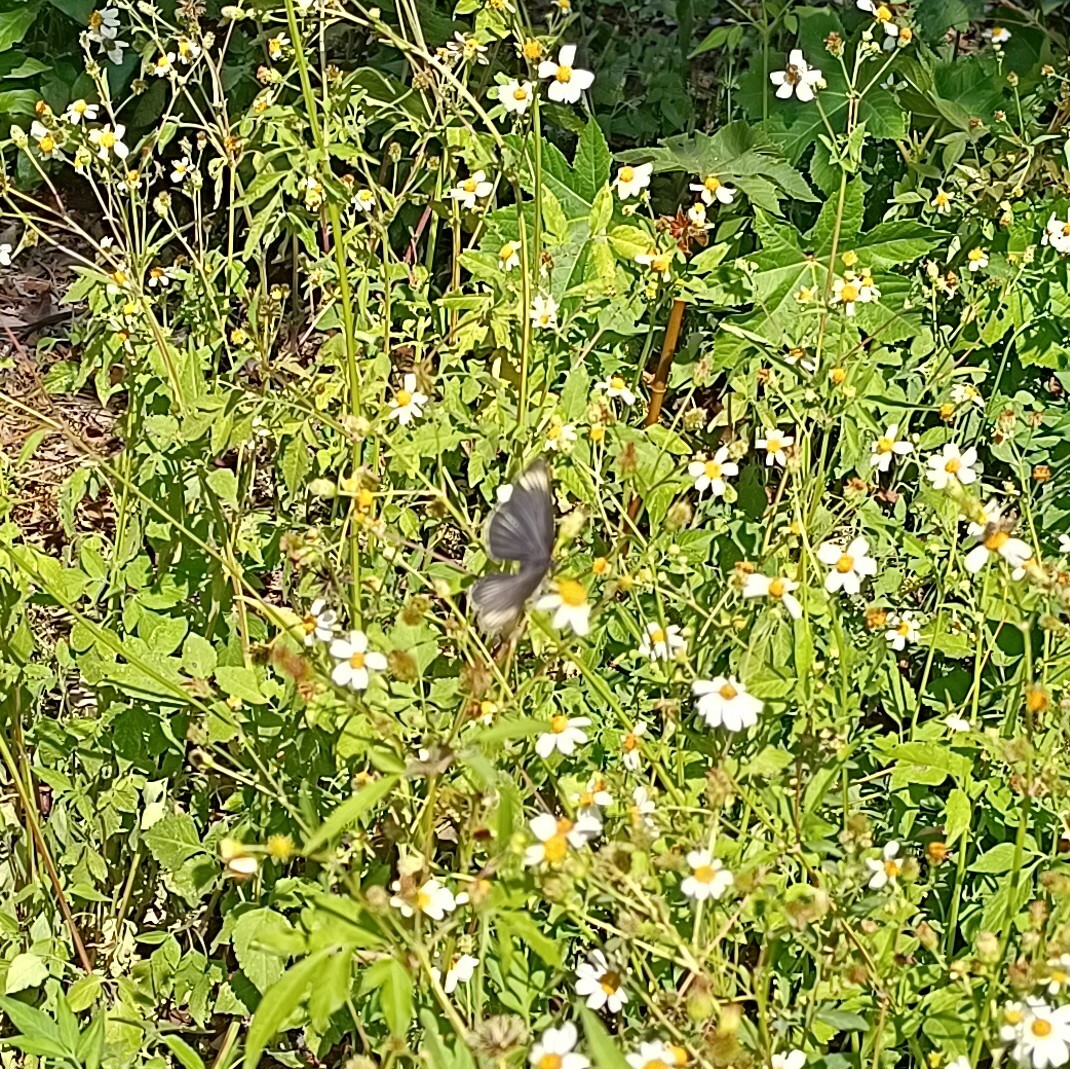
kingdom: Animalia
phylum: Arthropoda
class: Insecta
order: Lepidoptera
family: Nymphalidae
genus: Chlosyne
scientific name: Chlosyne ehrenbergii
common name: White-rayed patch
